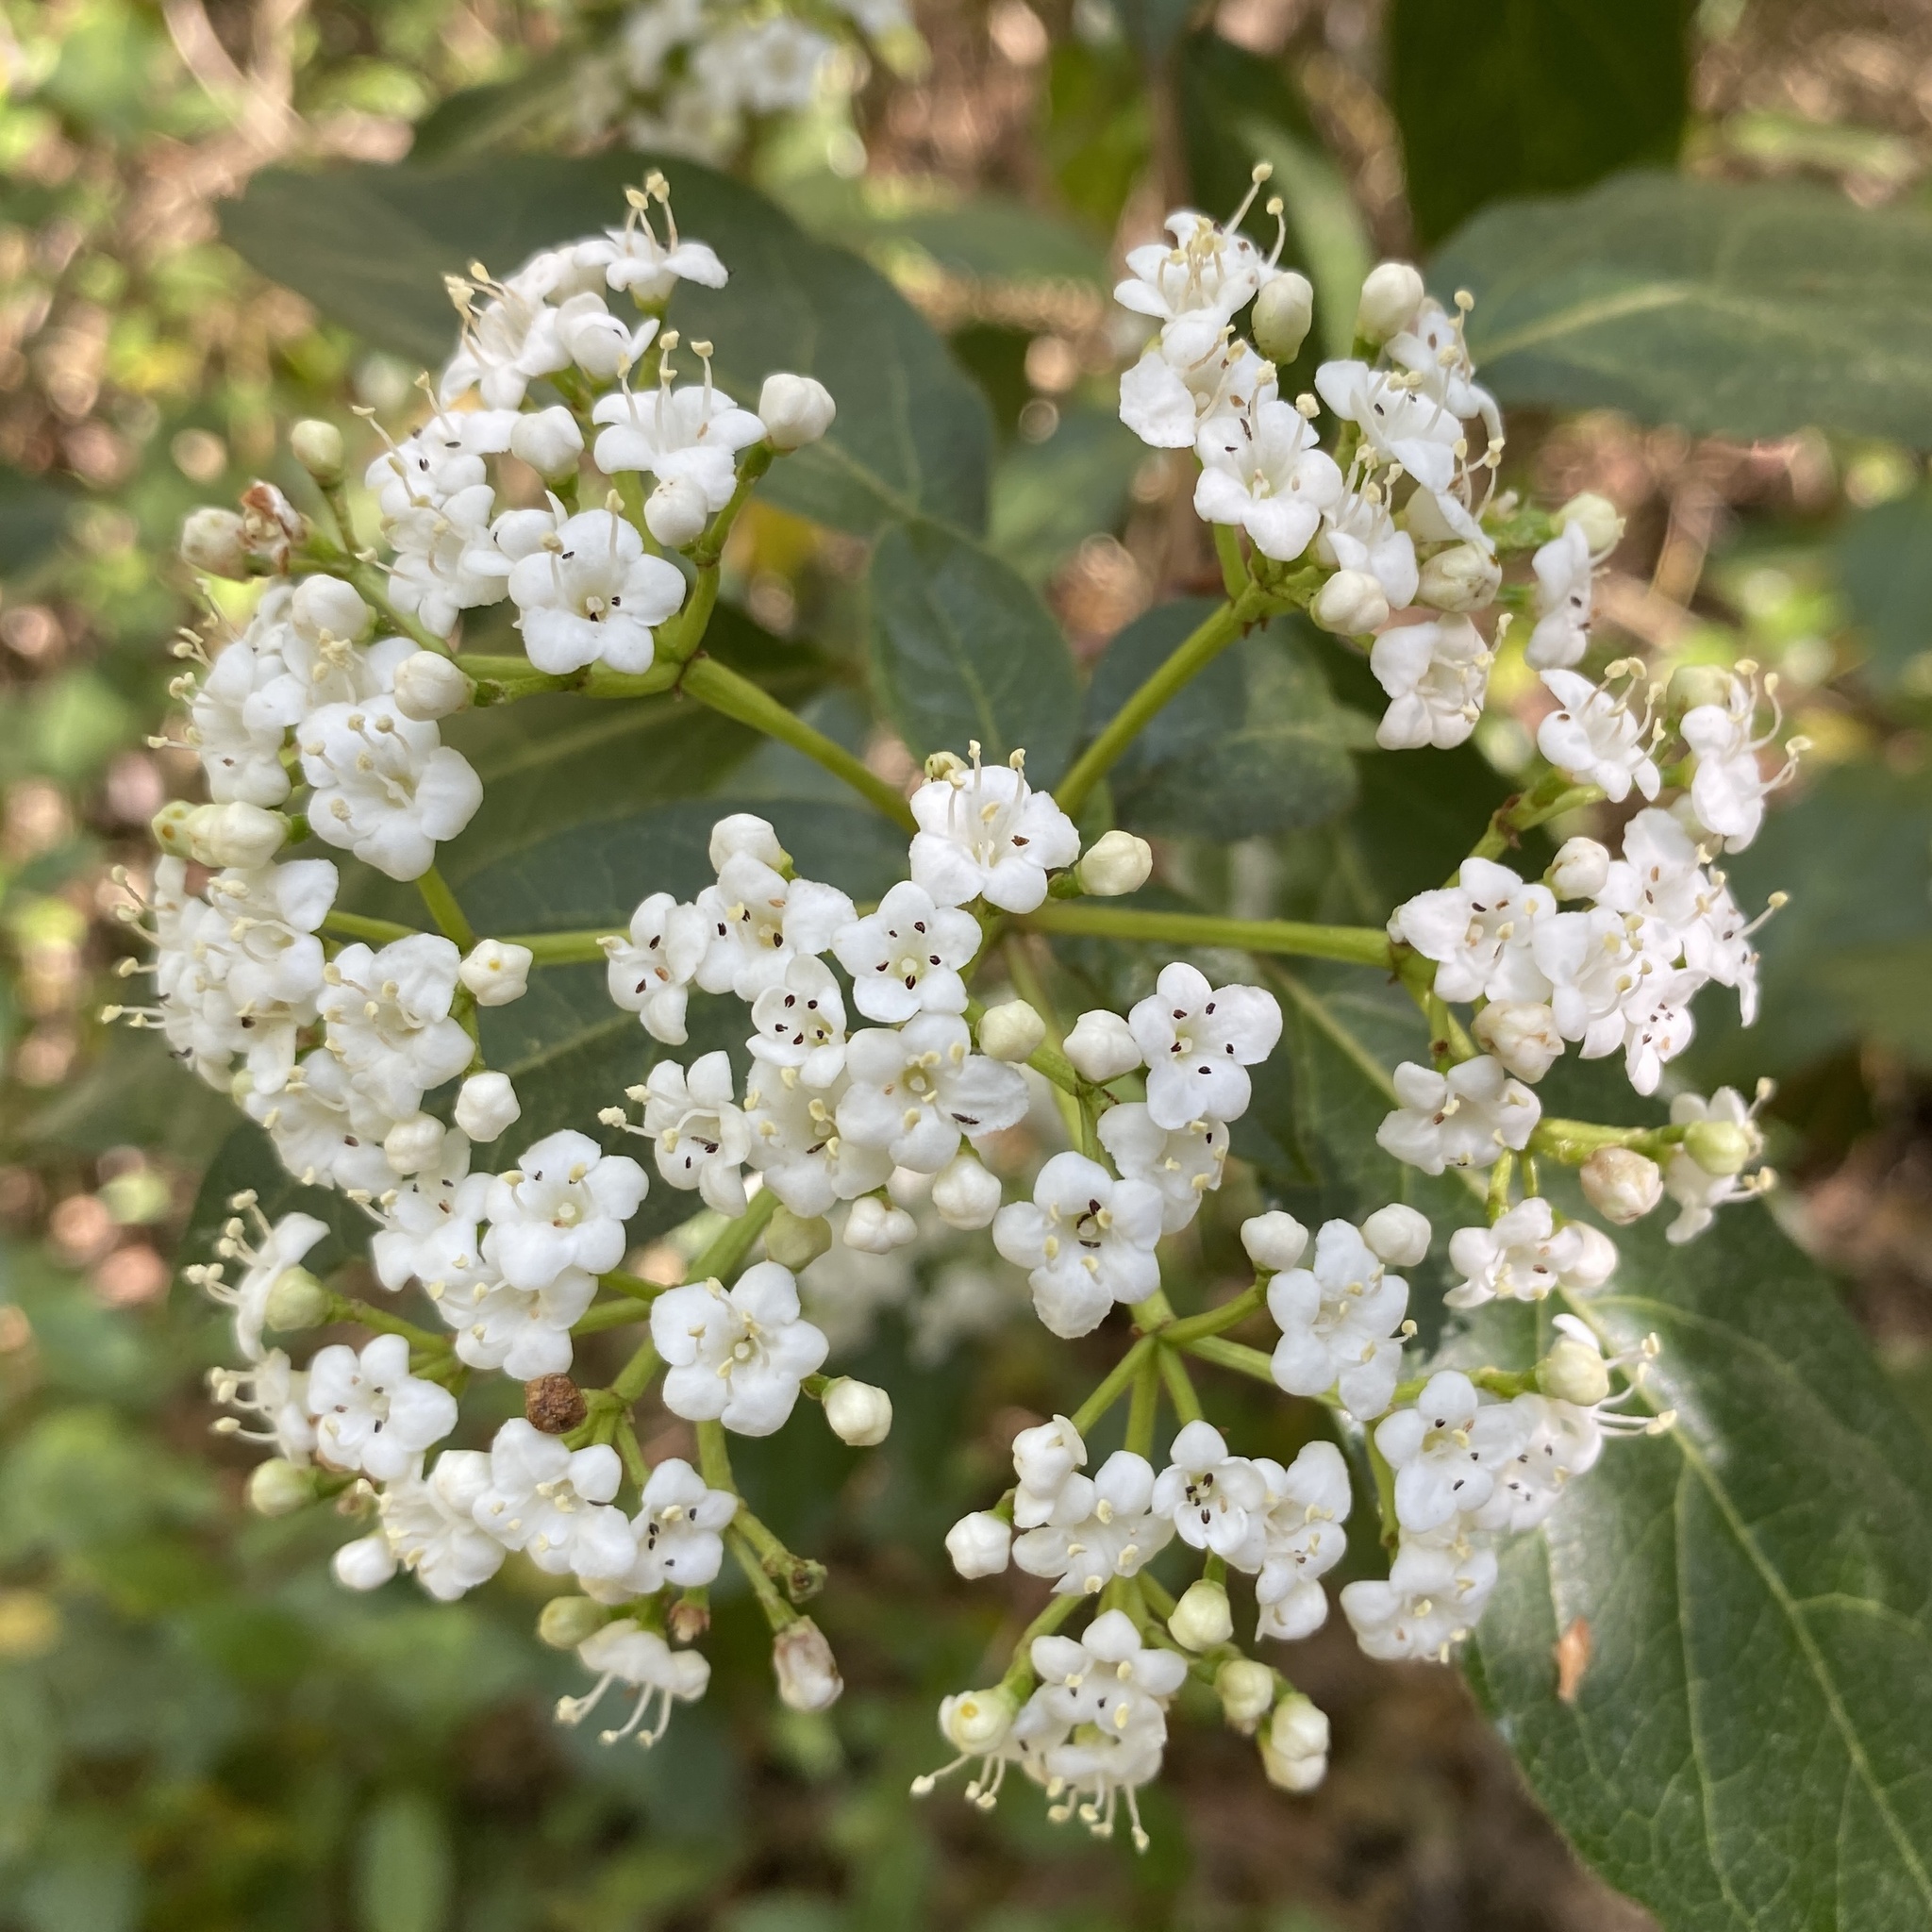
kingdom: Plantae
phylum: Tracheophyta
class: Magnoliopsida
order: Dipsacales
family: Viburnaceae
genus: Viburnum
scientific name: Viburnum tinus
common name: Laurustinus
